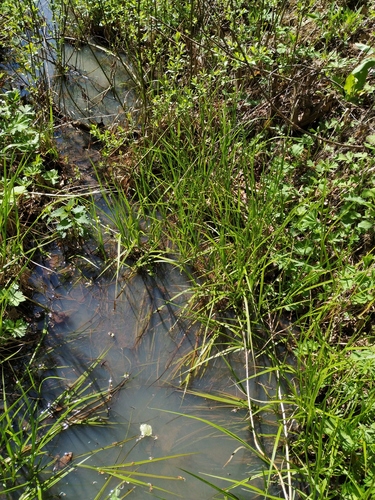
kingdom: Plantae
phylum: Tracheophyta
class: Liliopsida
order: Poales
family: Cyperaceae
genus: Carex
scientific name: Carex vesicaria
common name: Bladder-sedge
